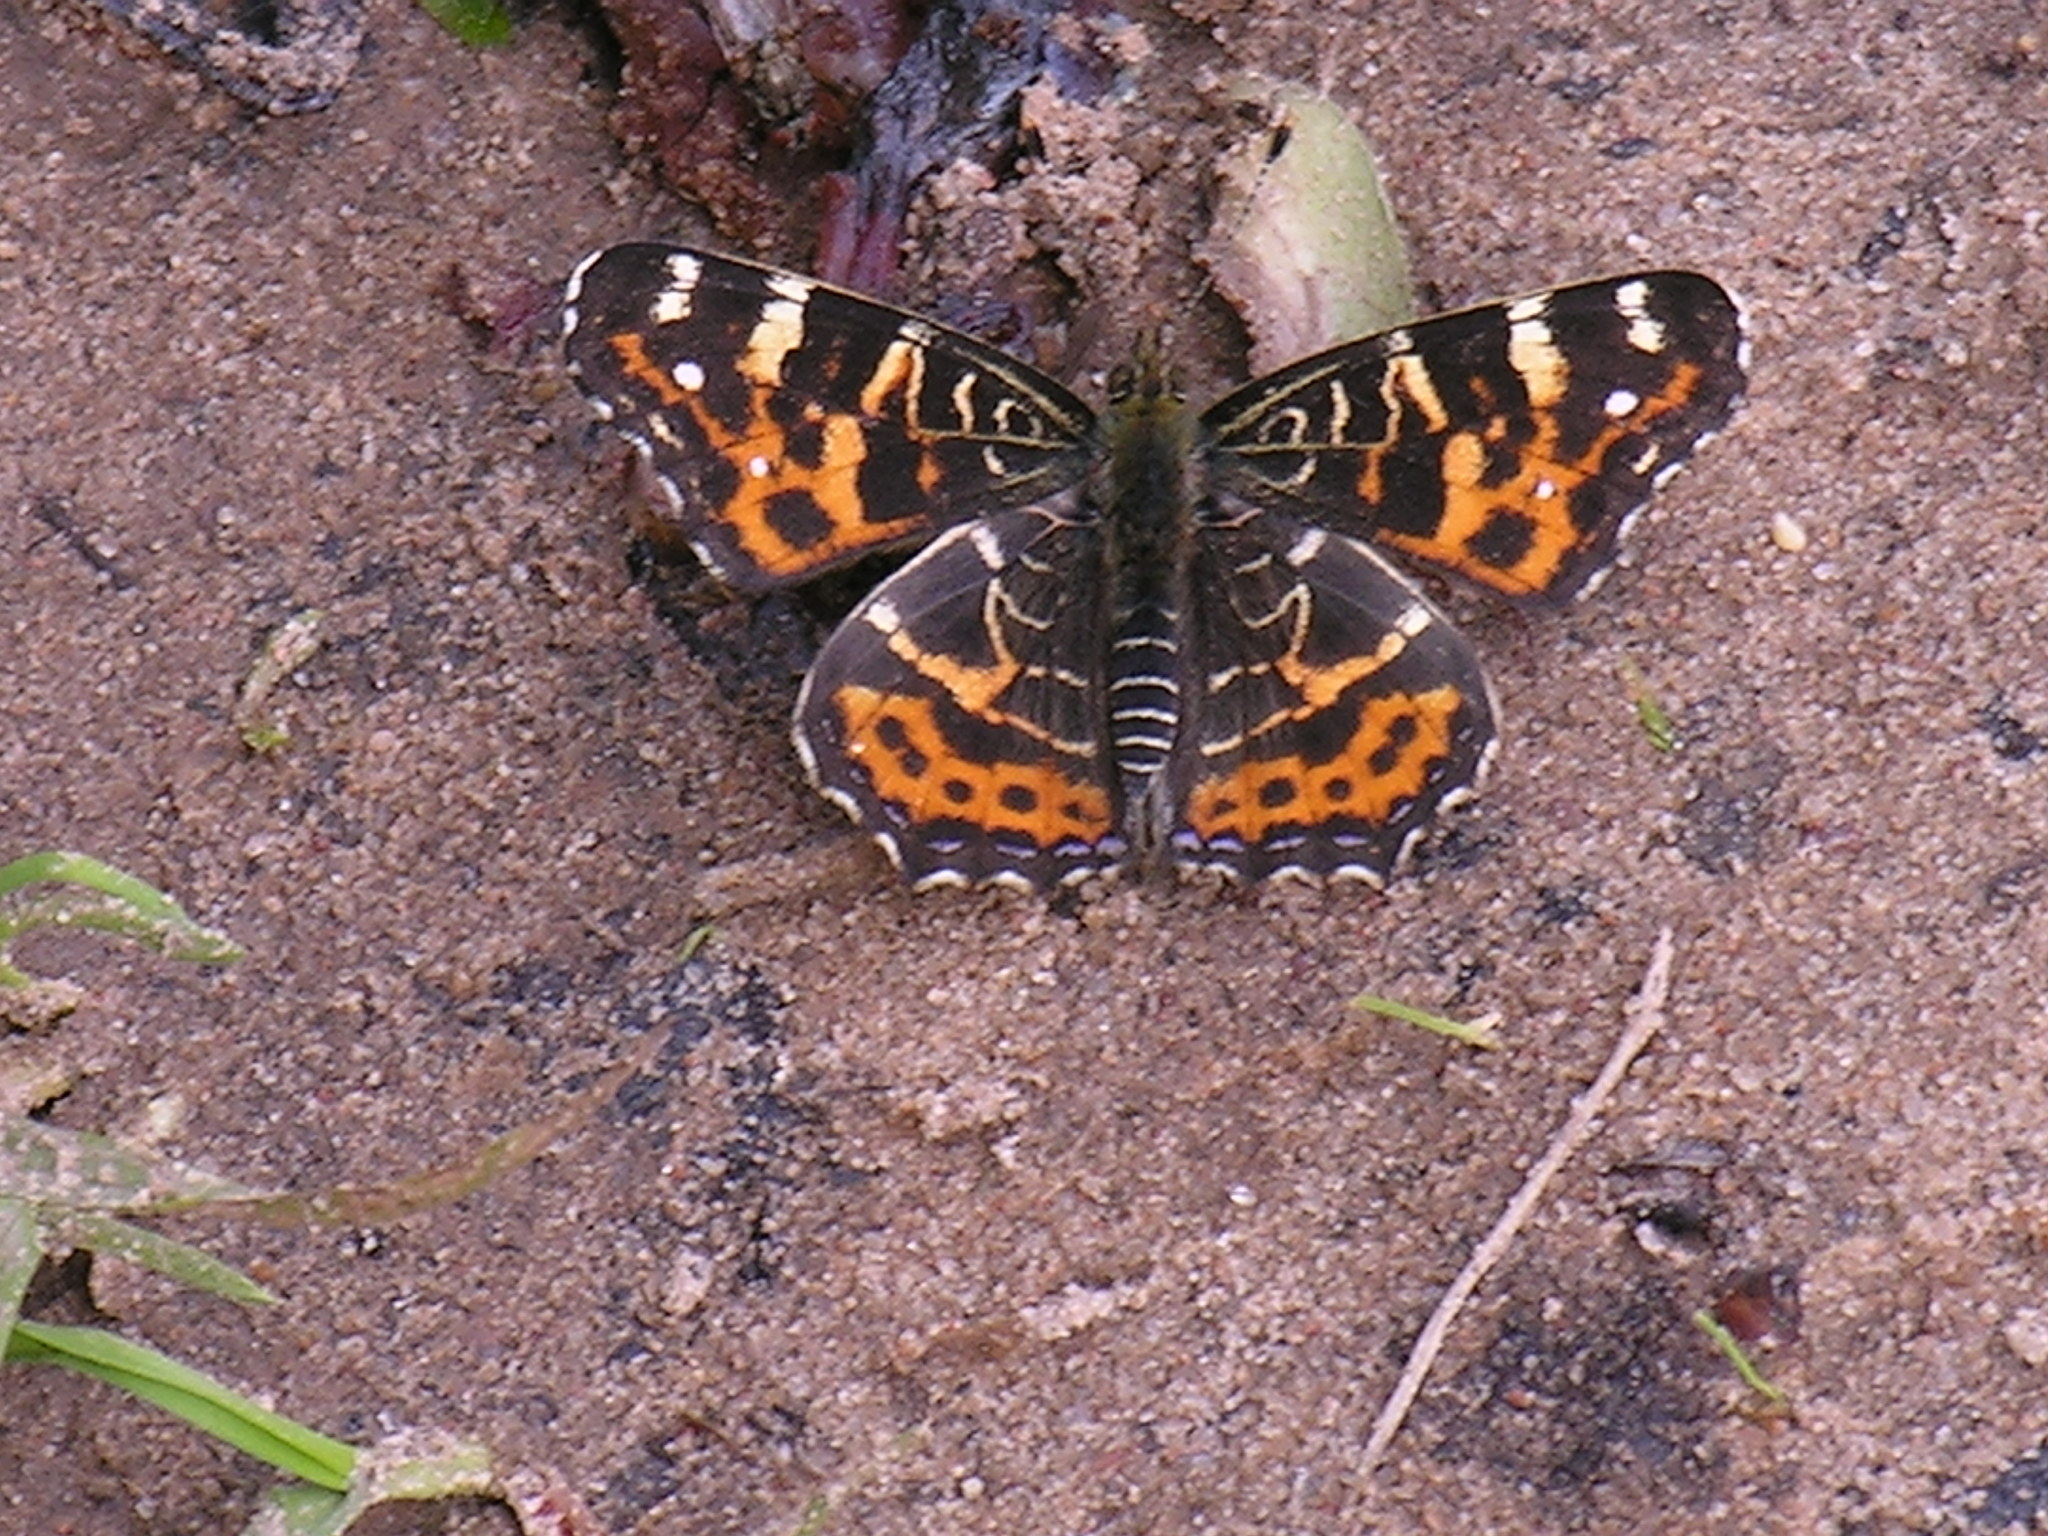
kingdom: Animalia
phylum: Arthropoda
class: Insecta
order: Lepidoptera
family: Nymphalidae
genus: Araschnia
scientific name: Araschnia levana
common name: Map butterfly
